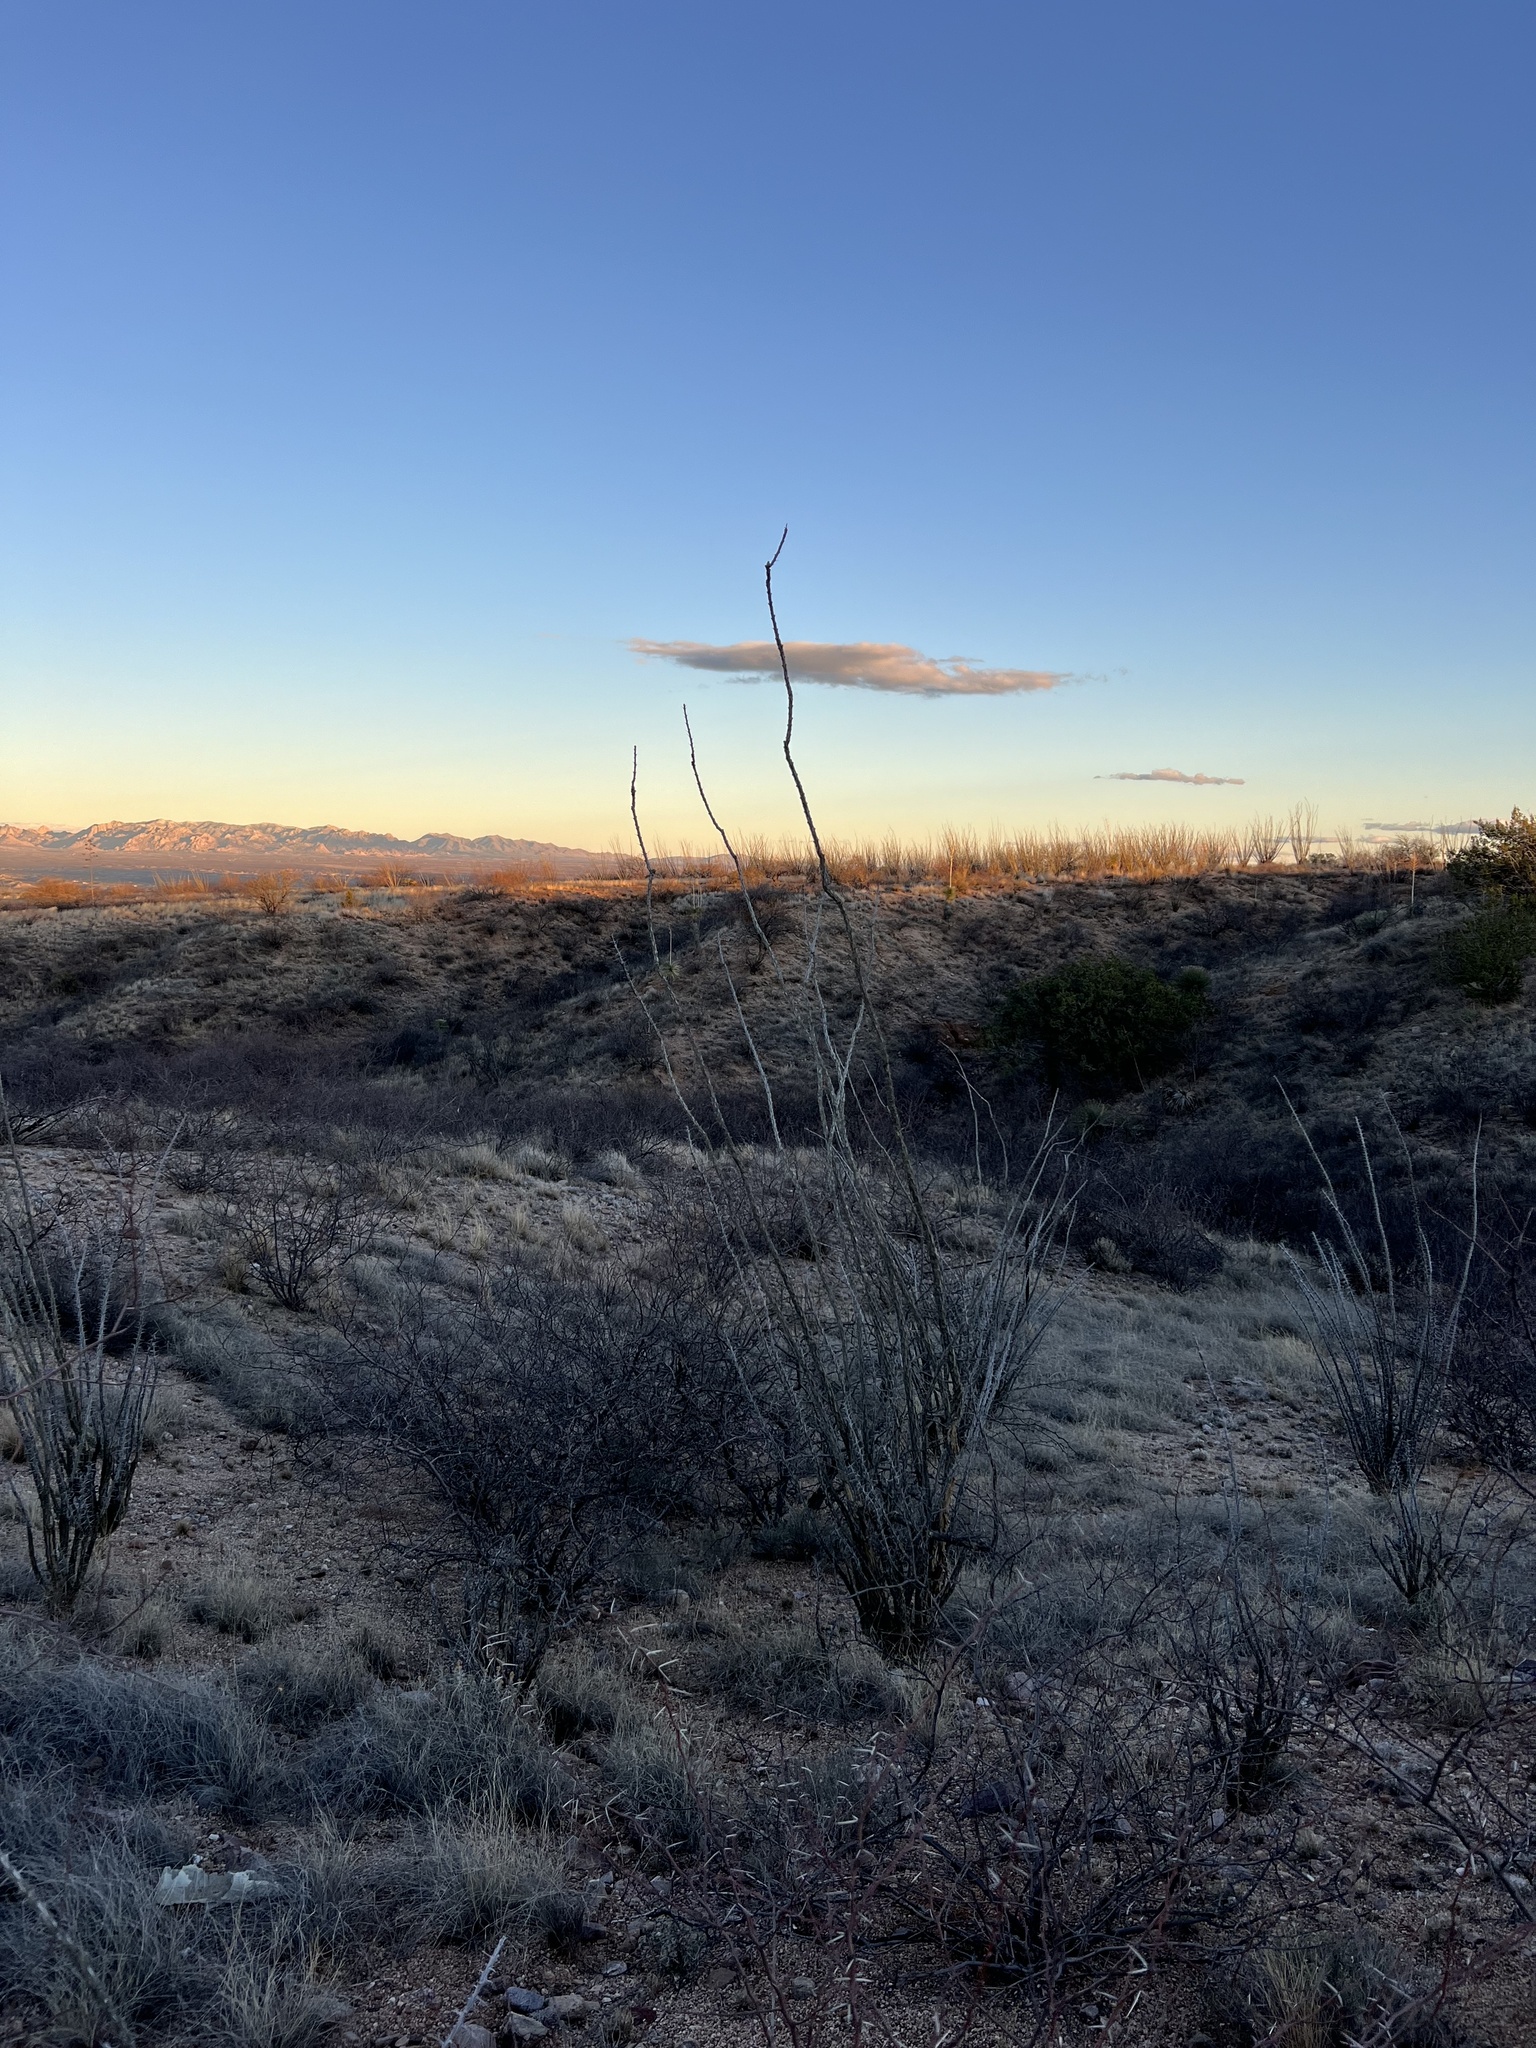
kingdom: Plantae
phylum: Tracheophyta
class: Magnoliopsida
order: Ericales
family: Fouquieriaceae
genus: Fouquieria
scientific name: Fouquieria splendens
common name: Vine-cactus
